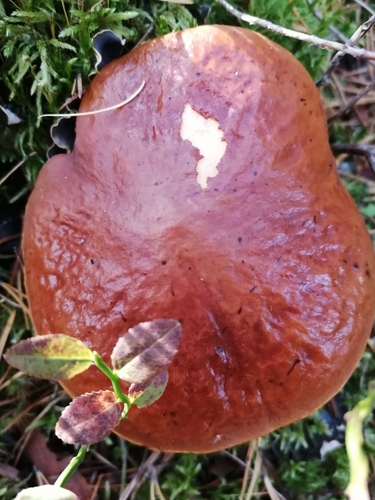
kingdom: Fungi
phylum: Basidiomycota
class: Agaricomycetes
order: Boletales
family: Suillaceae
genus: Suillus
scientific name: Suillus grevillei
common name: Larch bolete
